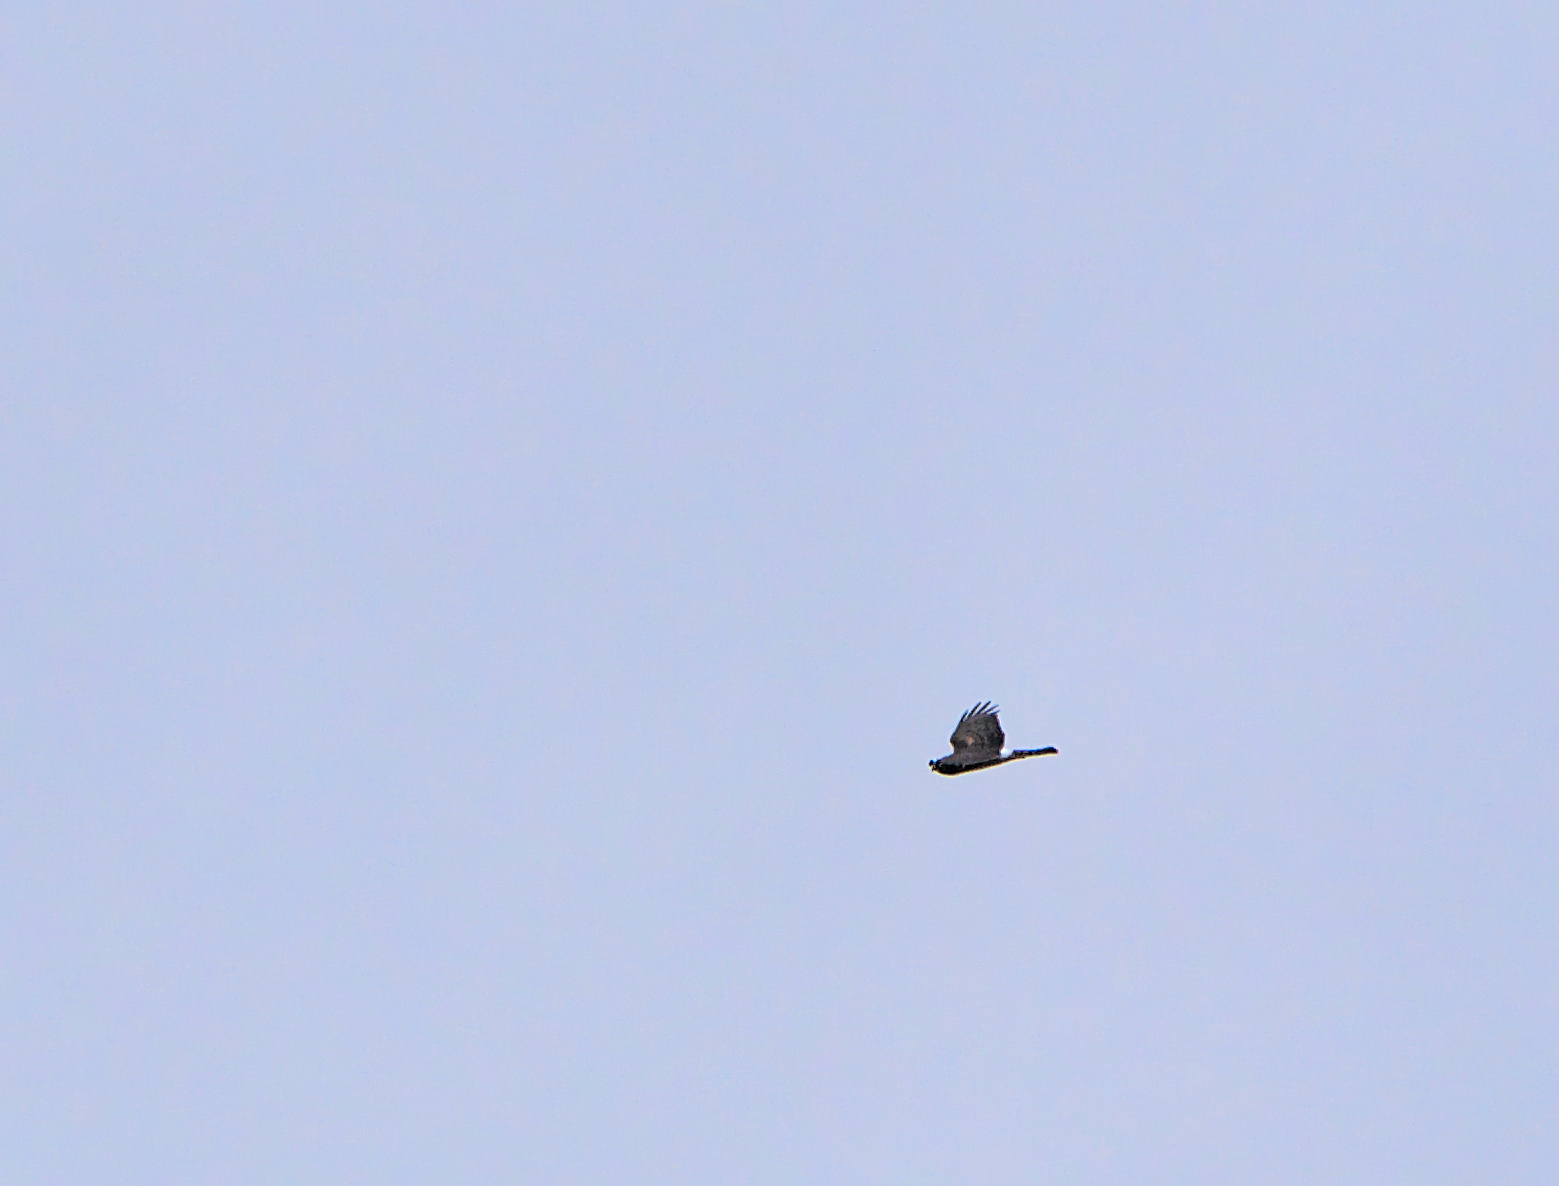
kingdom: Animalia
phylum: Chordata
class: Aves
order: Accipitriformes
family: Accipitridae
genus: Circus
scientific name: Circus cyaneus
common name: Hen harrier
